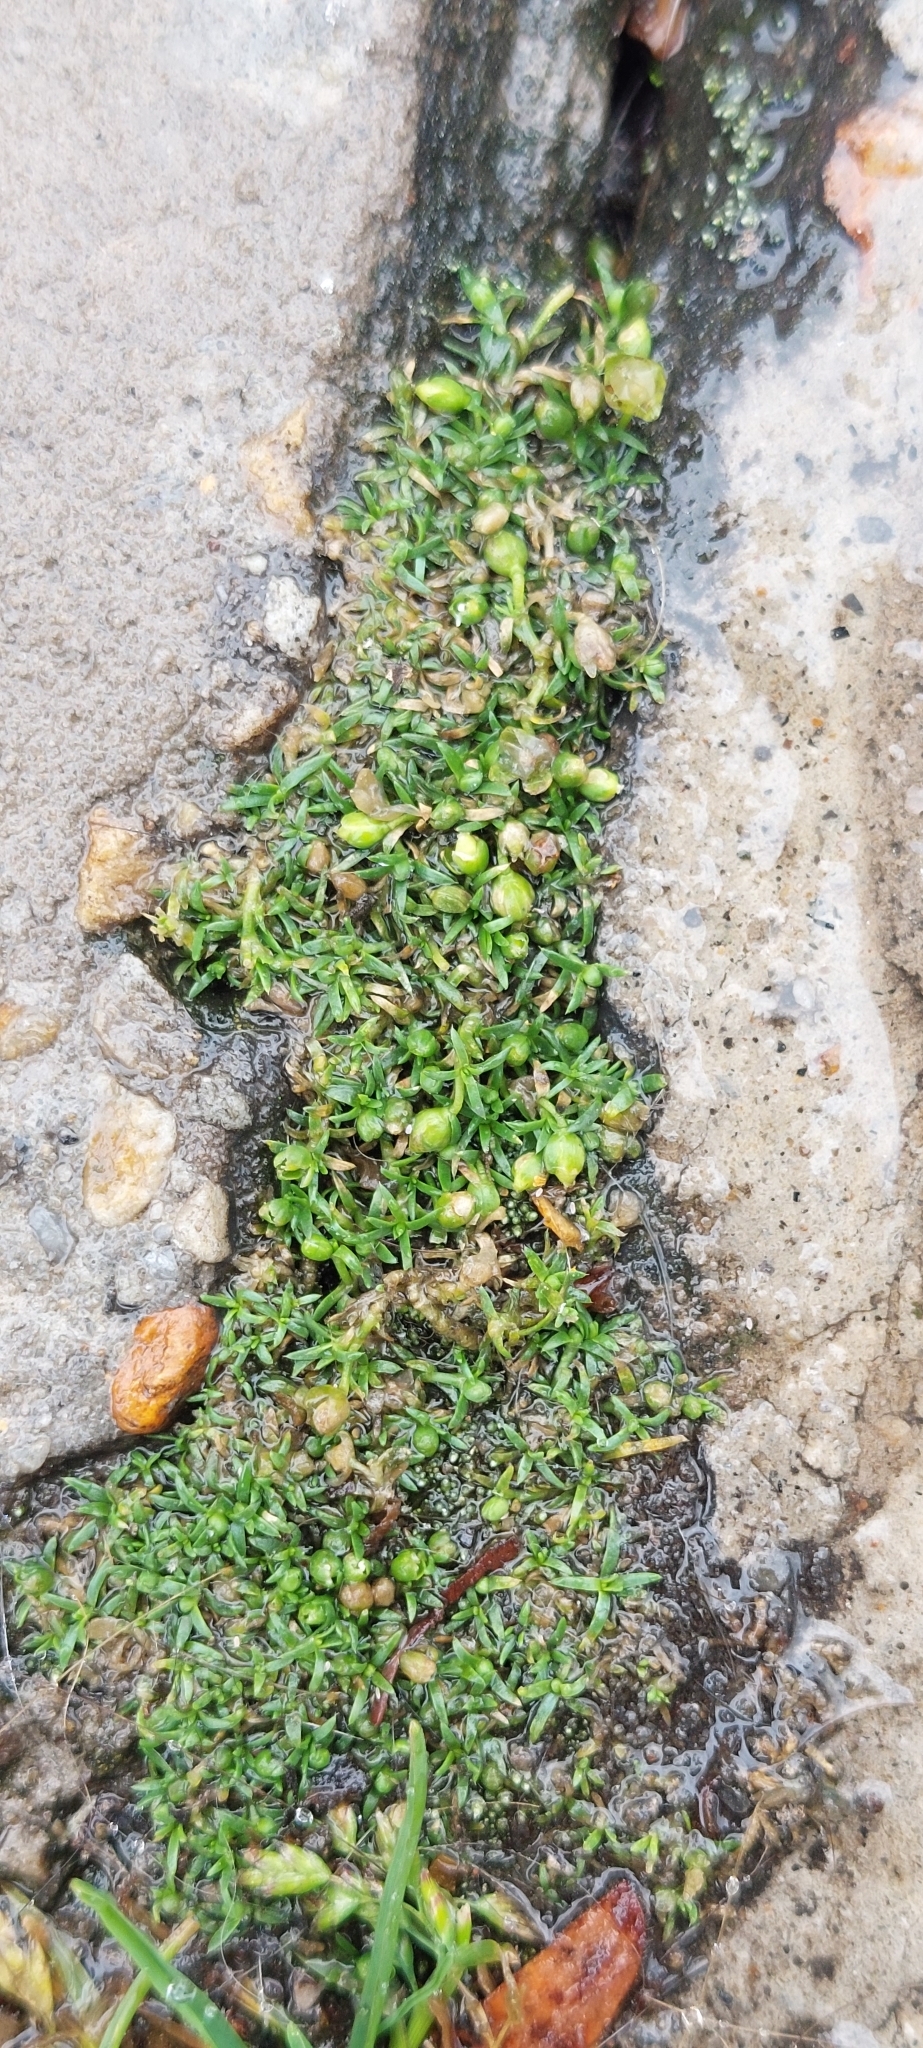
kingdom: Plantae
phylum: Tracheophyta
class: Magnoliopsida
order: Caryophyllales
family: Caryophyllaceae
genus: Sagina
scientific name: Sagina procumbens
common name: Procumbent pearlwort
